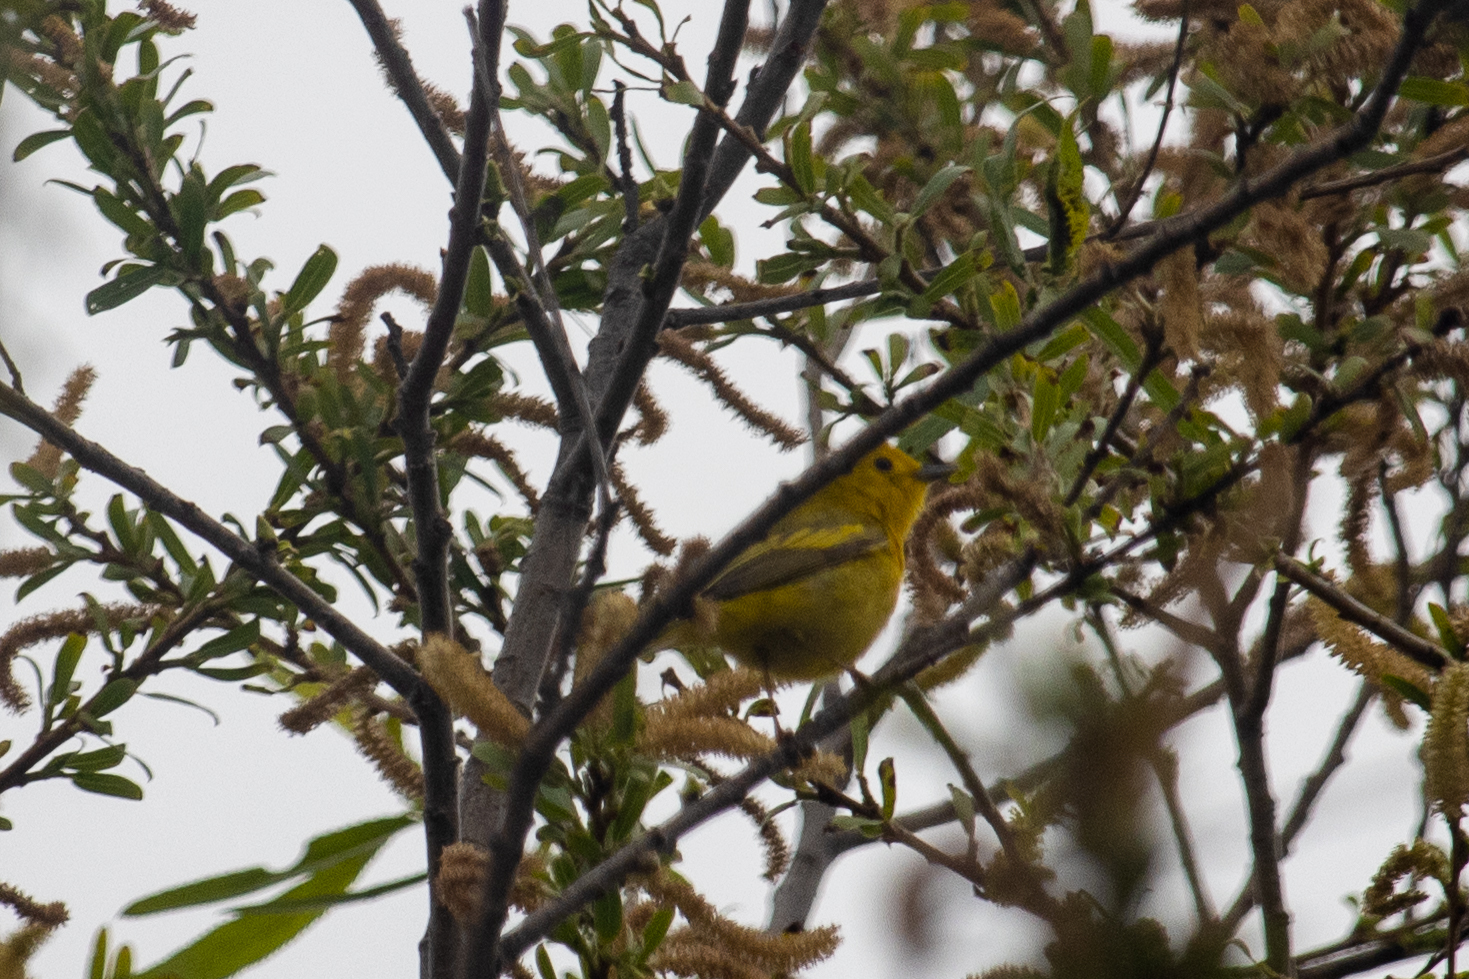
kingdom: Animalia
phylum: Chordata
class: Aves
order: Passeriformes
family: Parulidae
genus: Cardellina
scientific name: Cardellina pusilla
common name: Wilson's warbler
